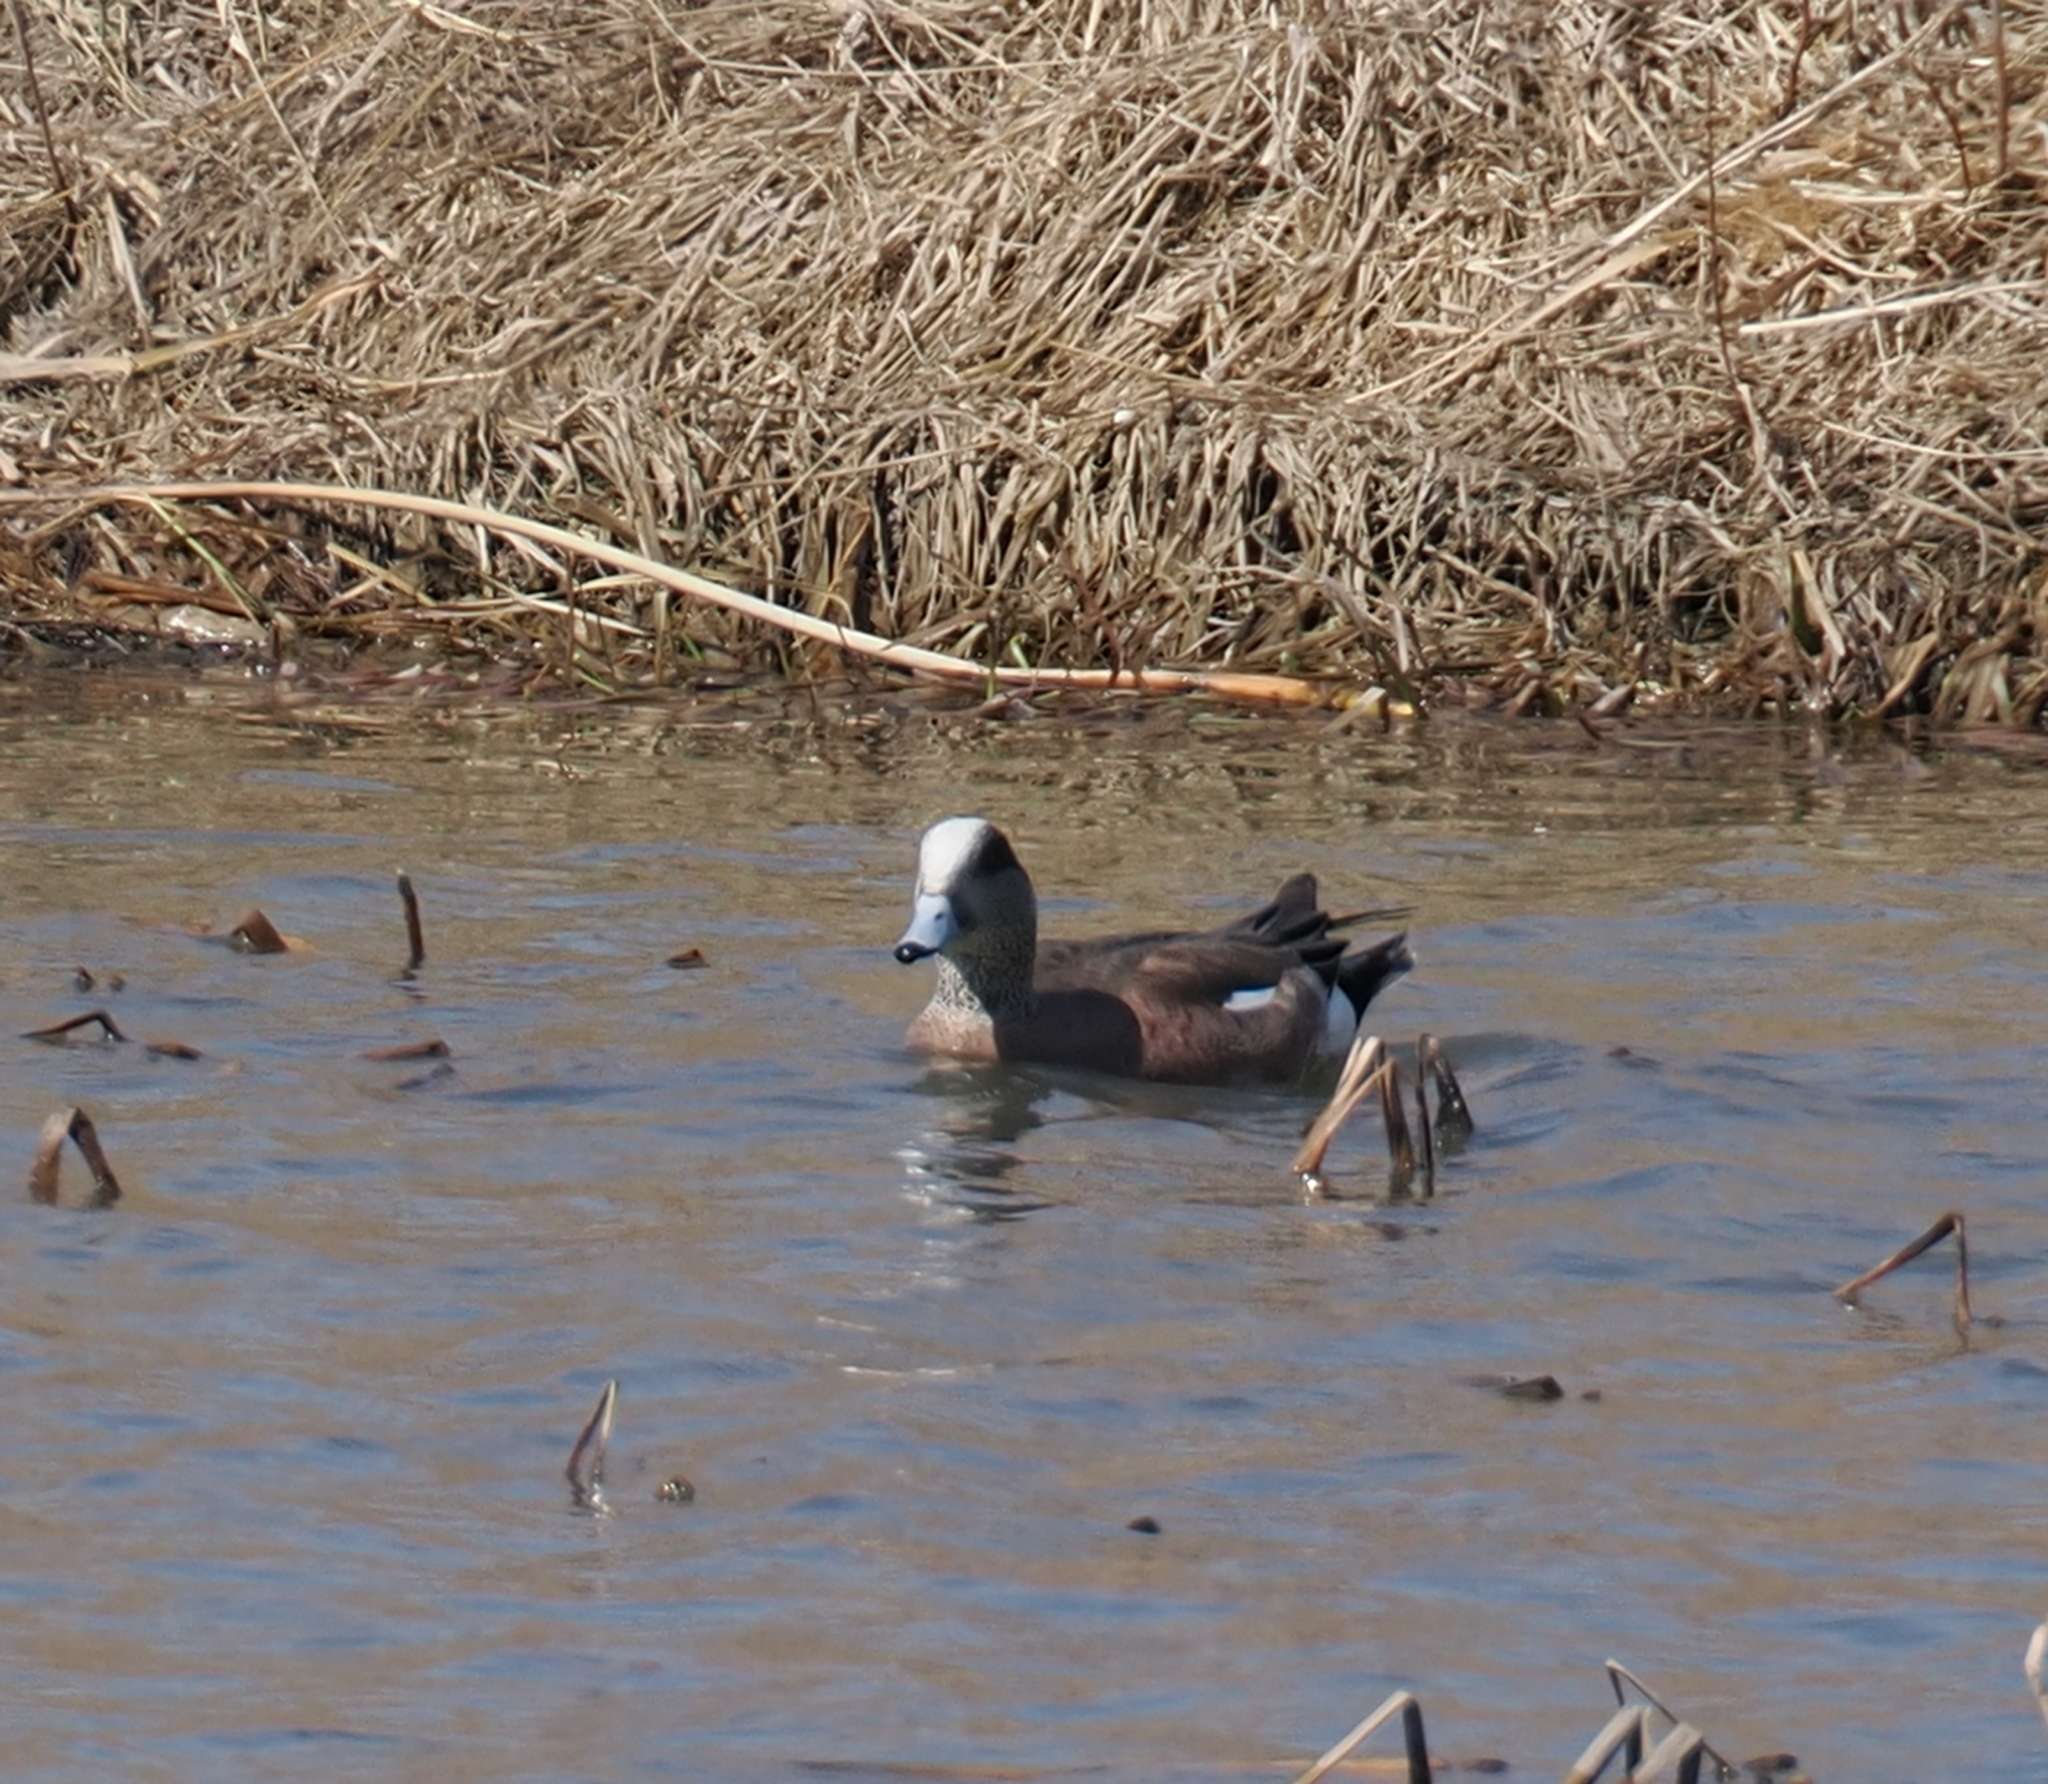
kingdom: Animalia
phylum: Chordata
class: Aves
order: Anseriformes
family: Anatidae
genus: Mareca
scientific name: Mareca americana
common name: American wigeon
